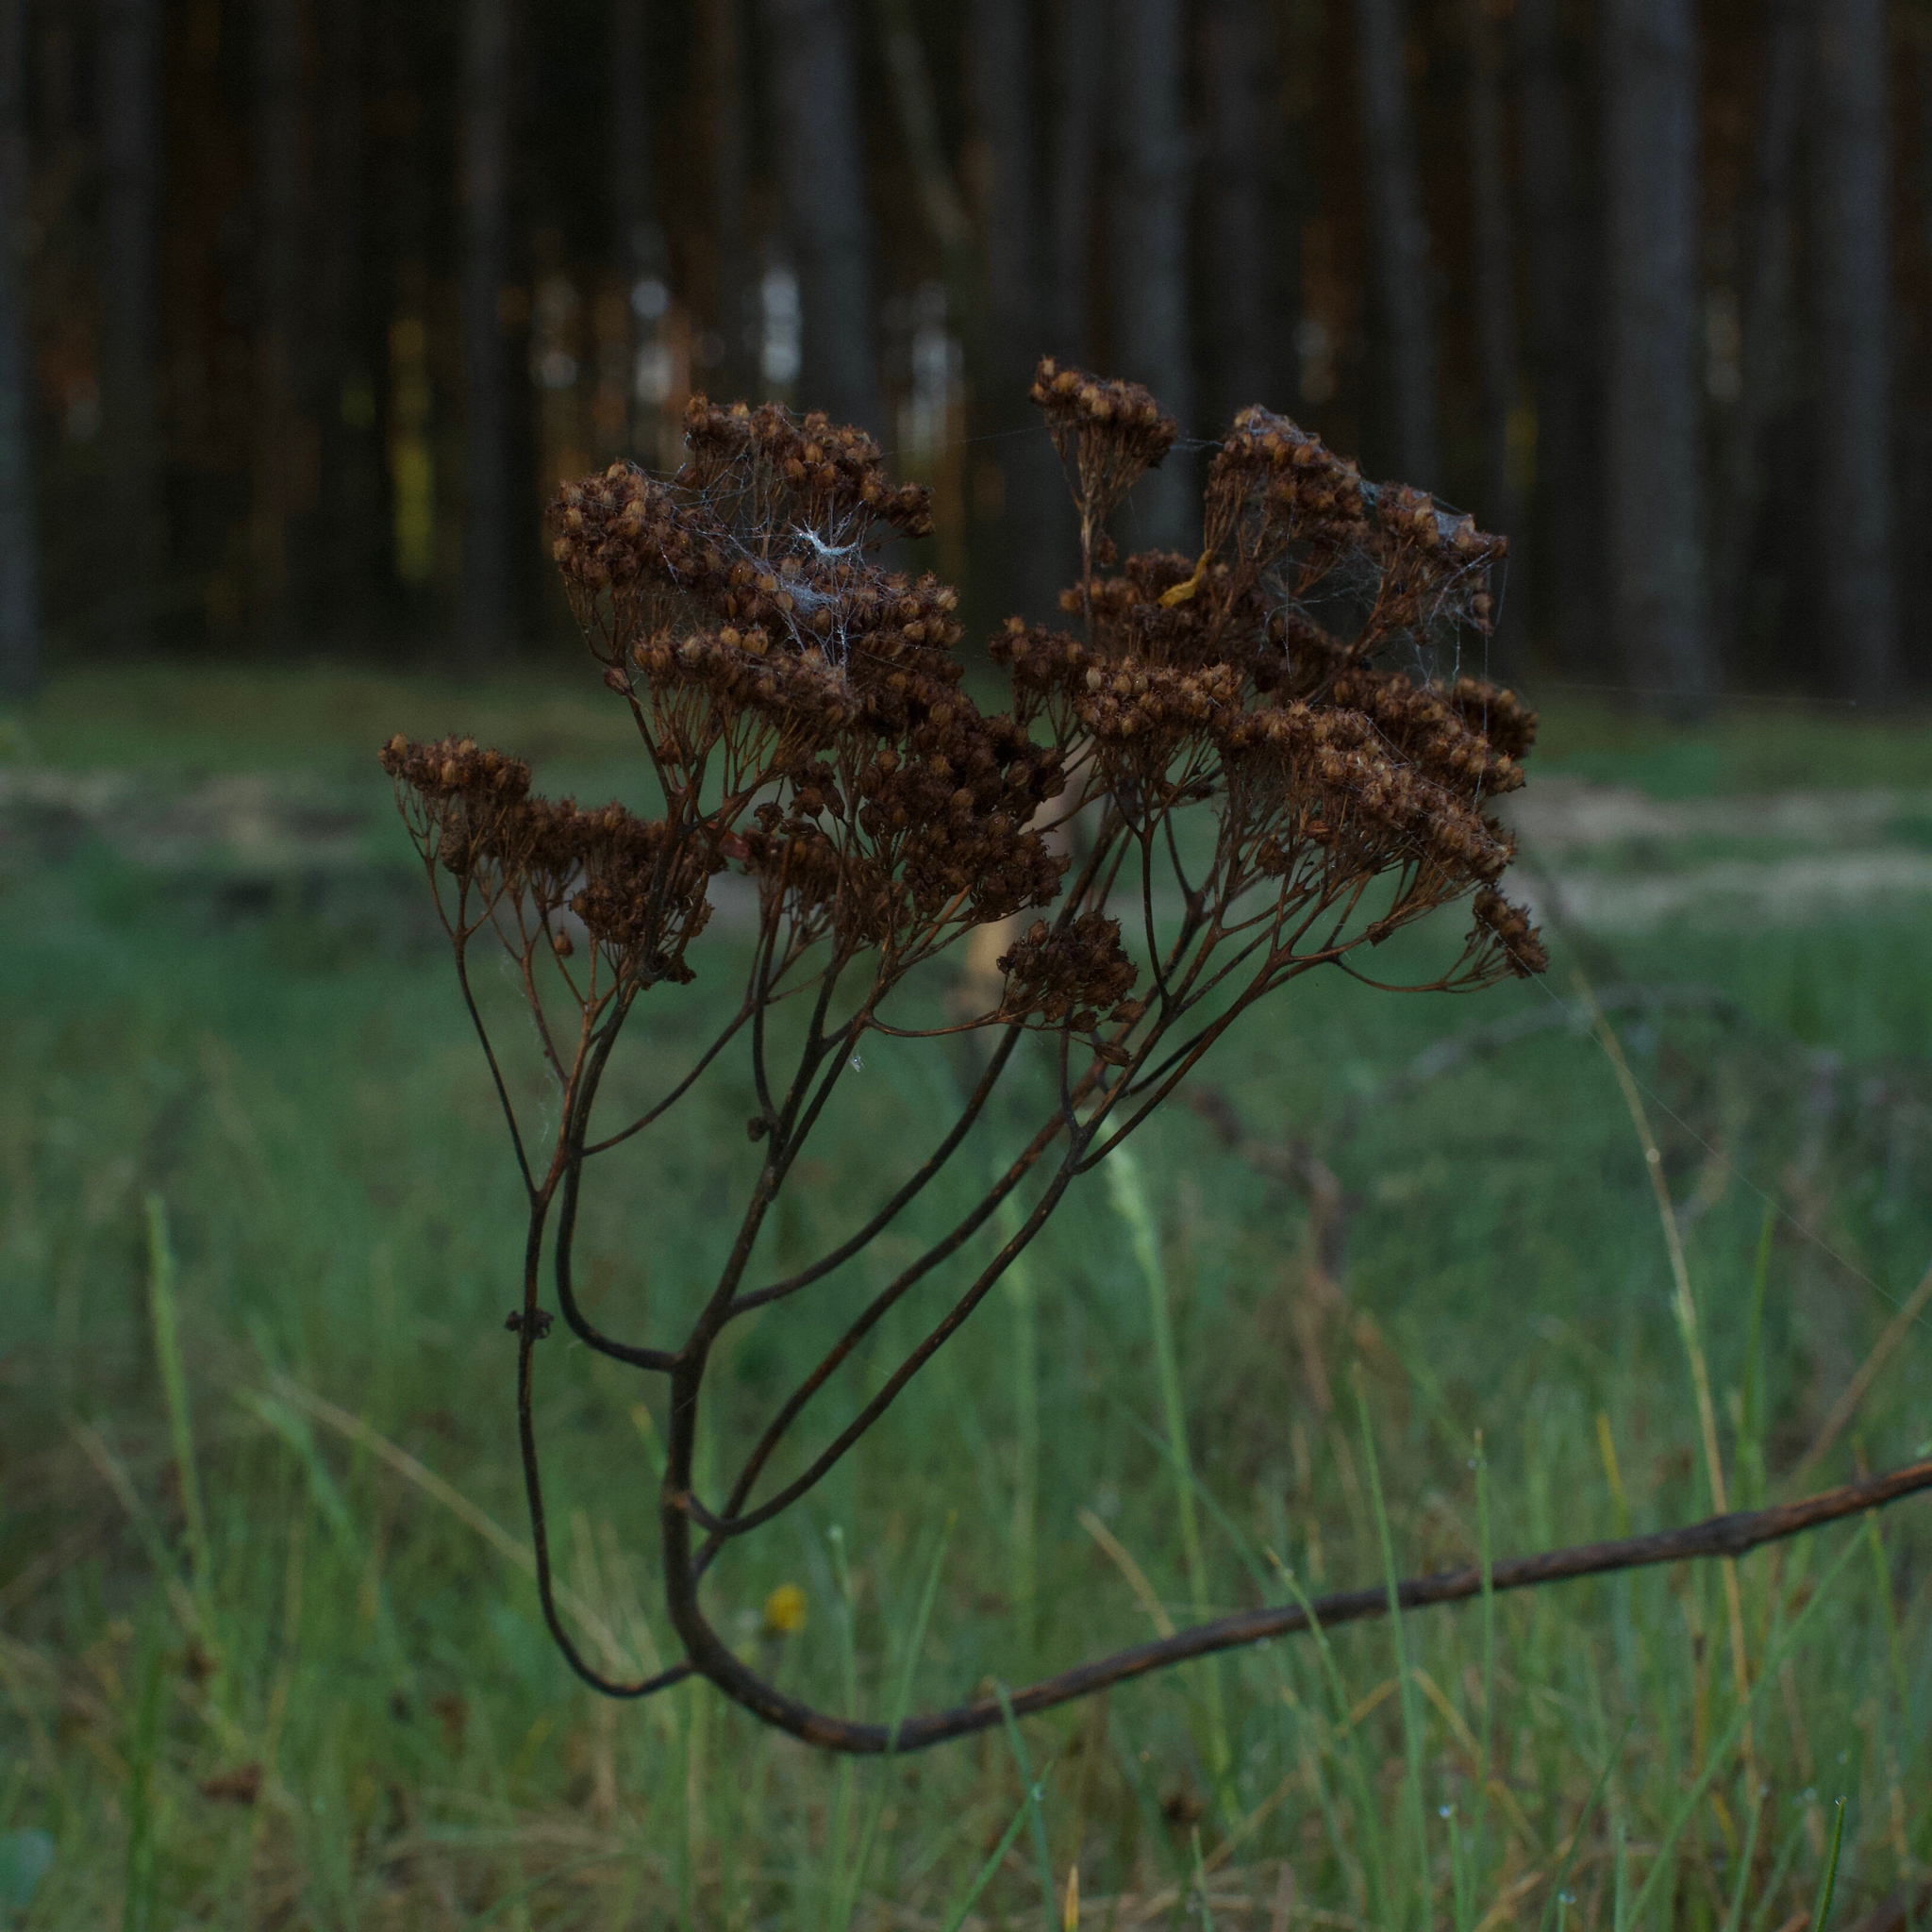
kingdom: Plantae
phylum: Tracheophyta
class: Magnoliopsida
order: Malpighiales
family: Hypericaceae
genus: Hypericum
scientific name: Hypericum
